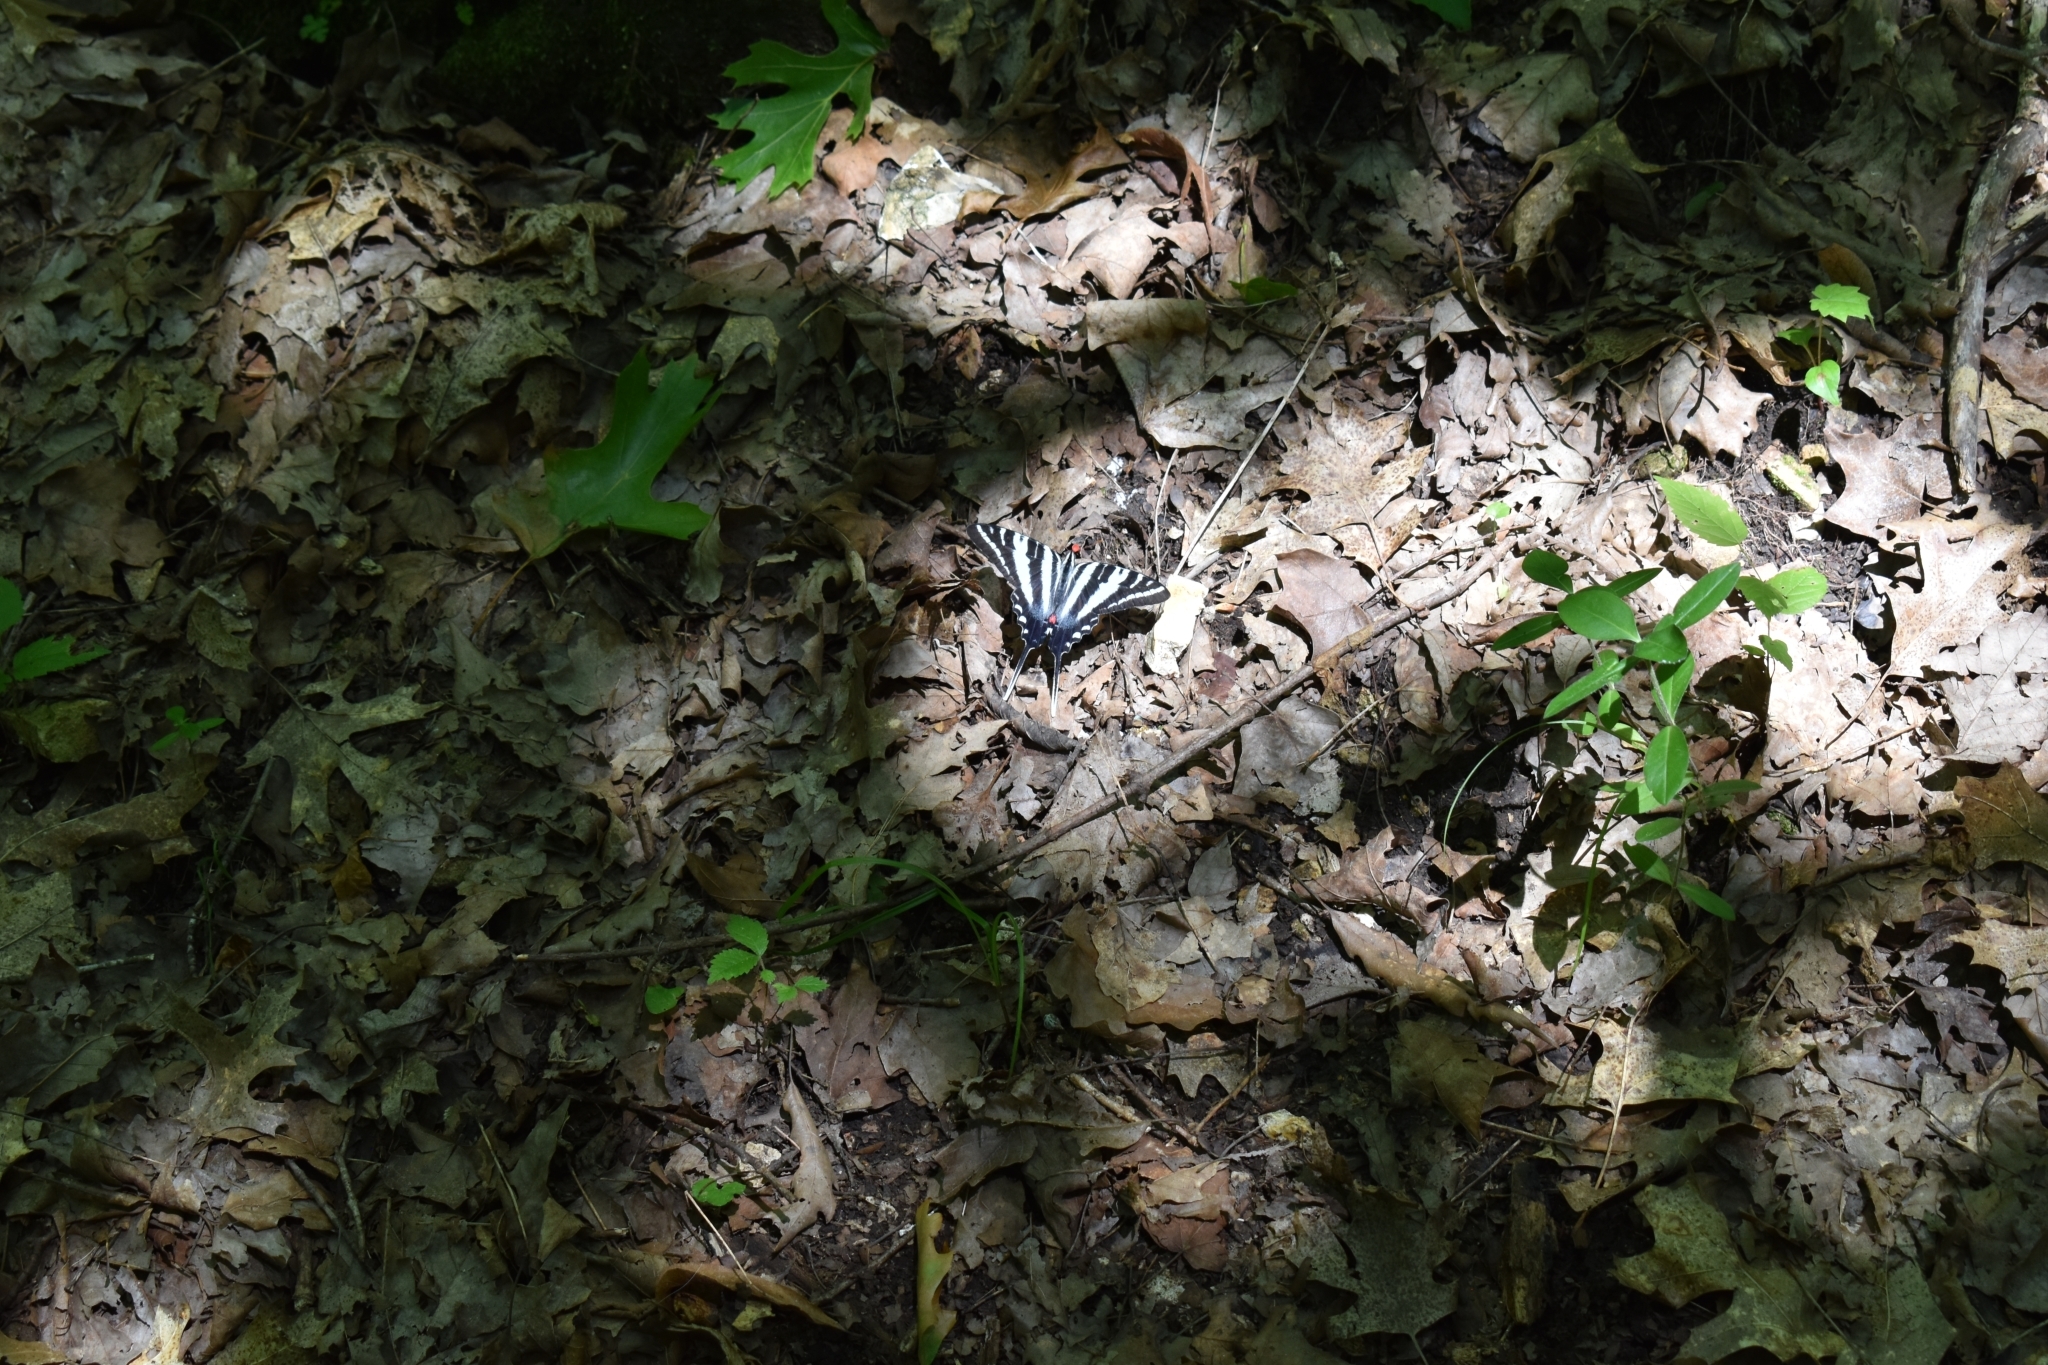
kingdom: Animalia
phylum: Arthropoda
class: Insecta
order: Lepidoptera
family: Papilionidae
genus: Protographium
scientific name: Protographium marcellus
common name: Zebra swallowtail
